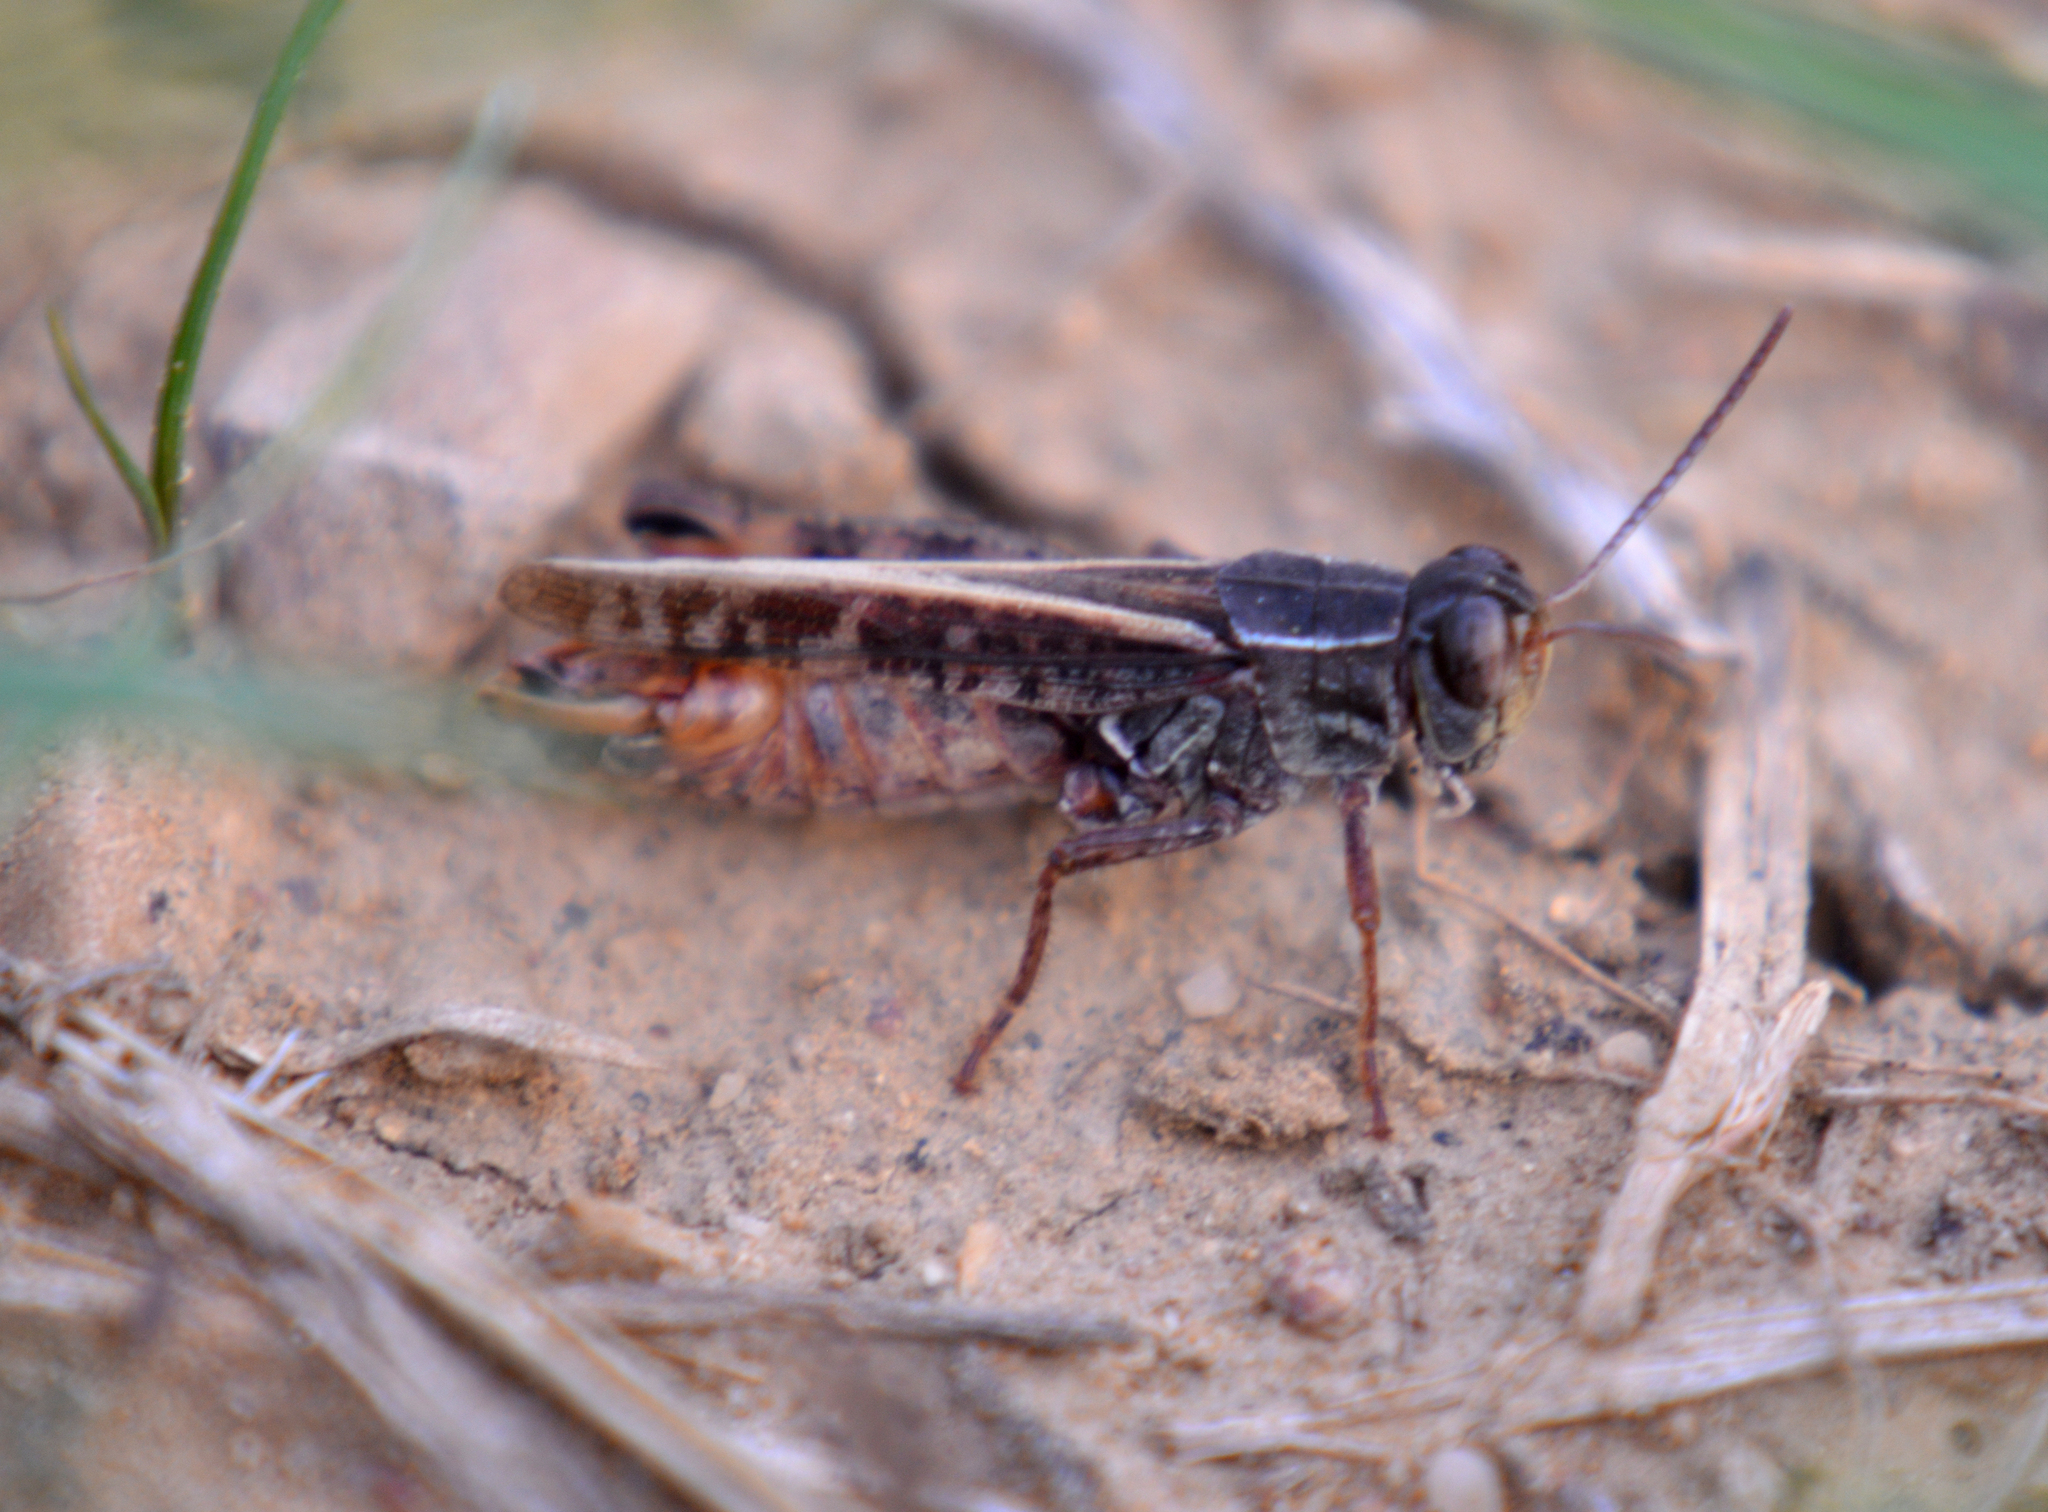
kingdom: Animalia
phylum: Arthropoda
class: Insecta
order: Orthoptera
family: Acrididae
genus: Calliptamus
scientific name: Calliptamus italicus
